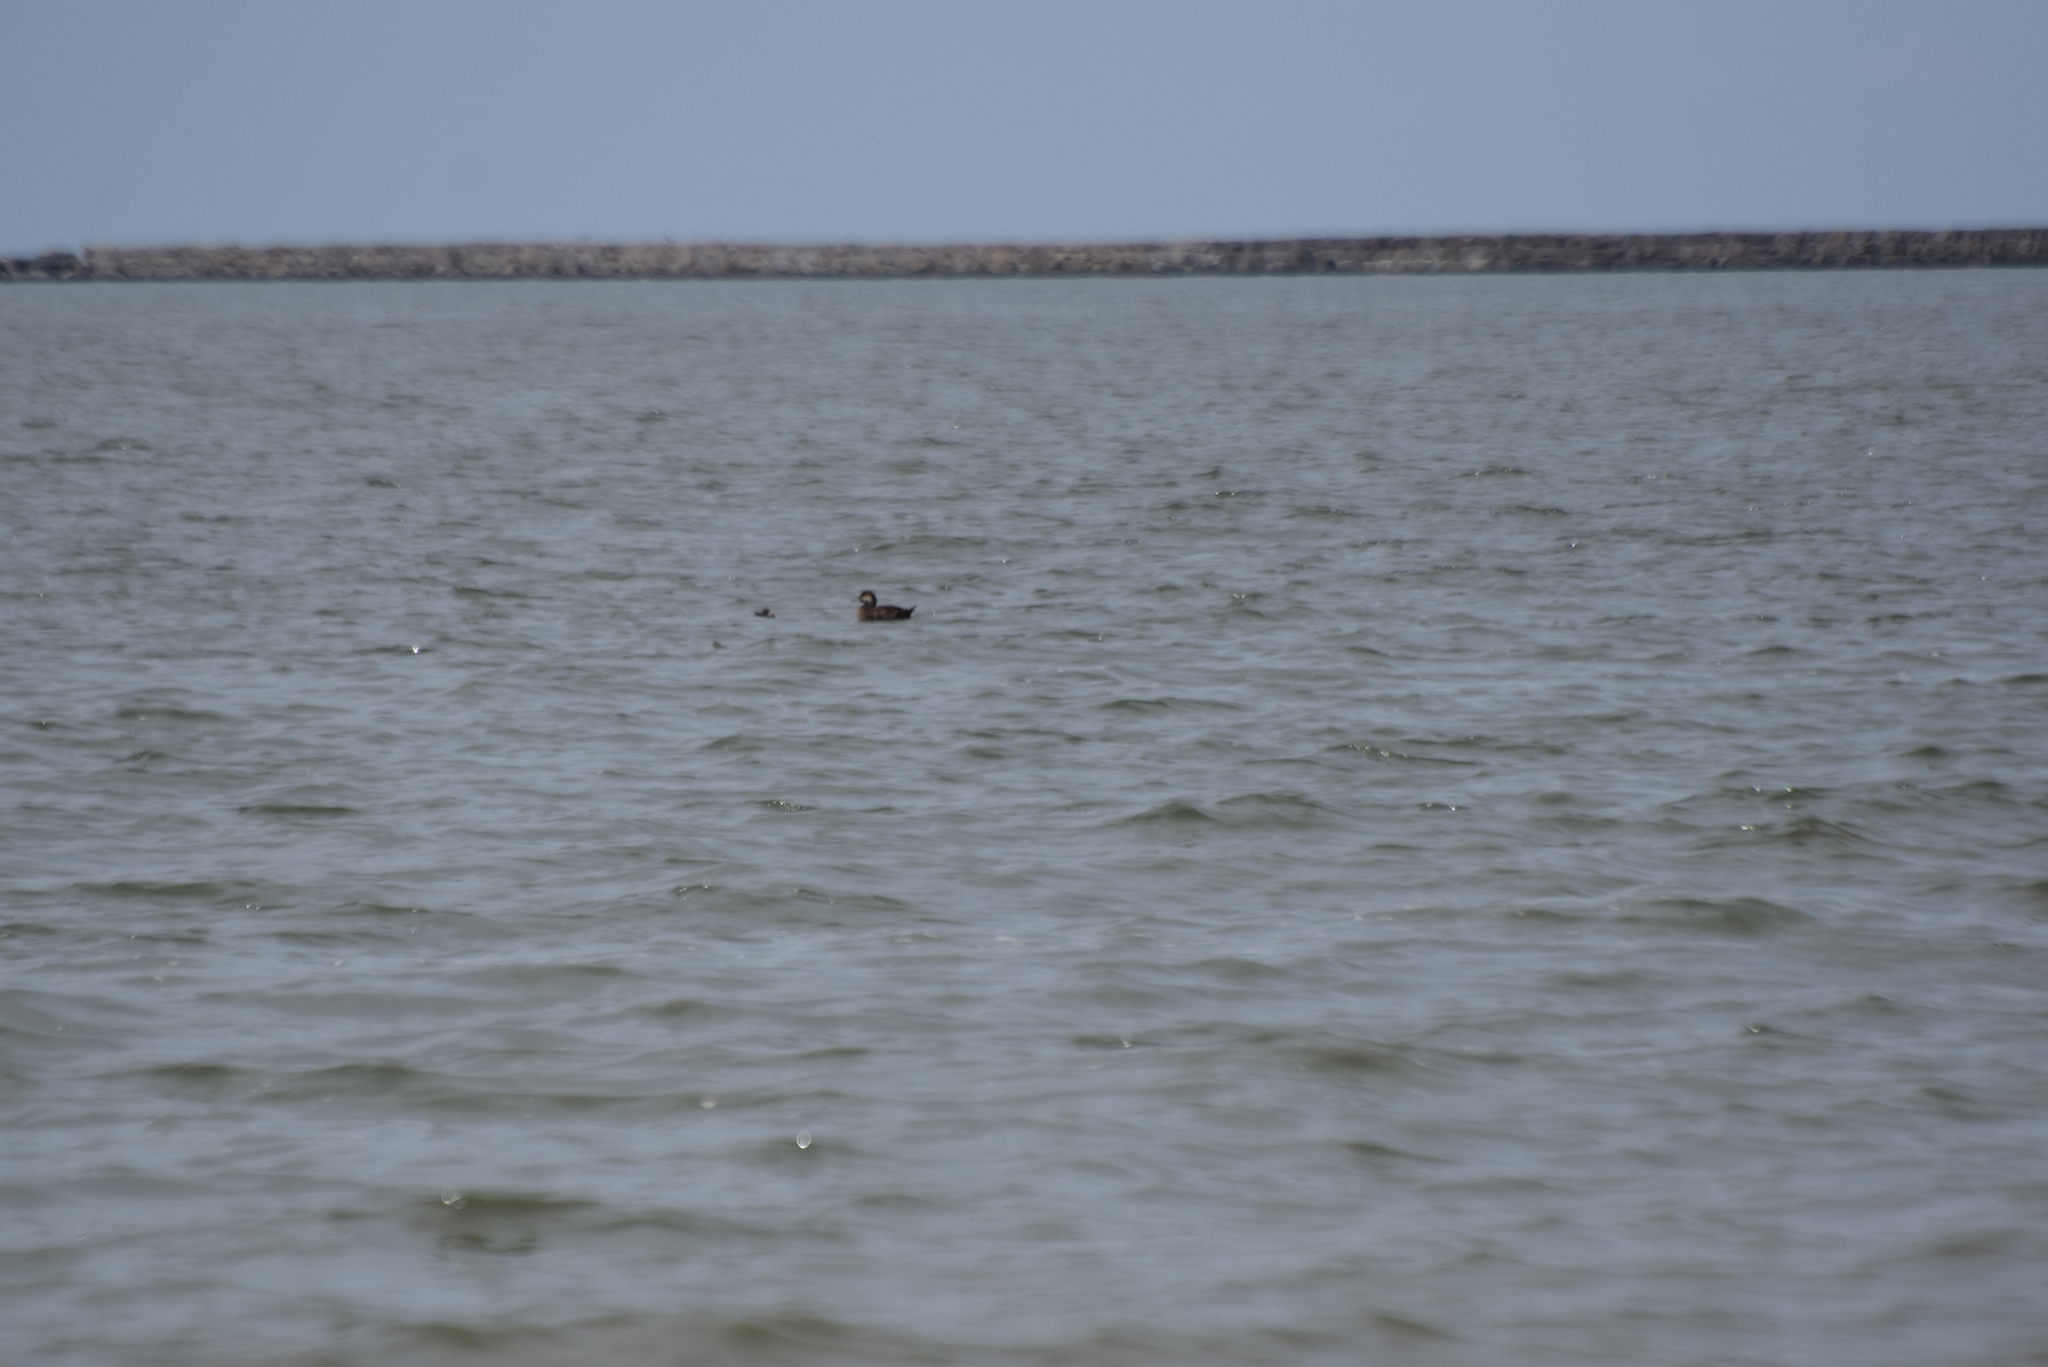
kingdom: Animalia
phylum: Chordata
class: Aves
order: Anseriformes
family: Anatidae
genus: Bucephala
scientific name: Bucephala albeola
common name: Bufflehead
